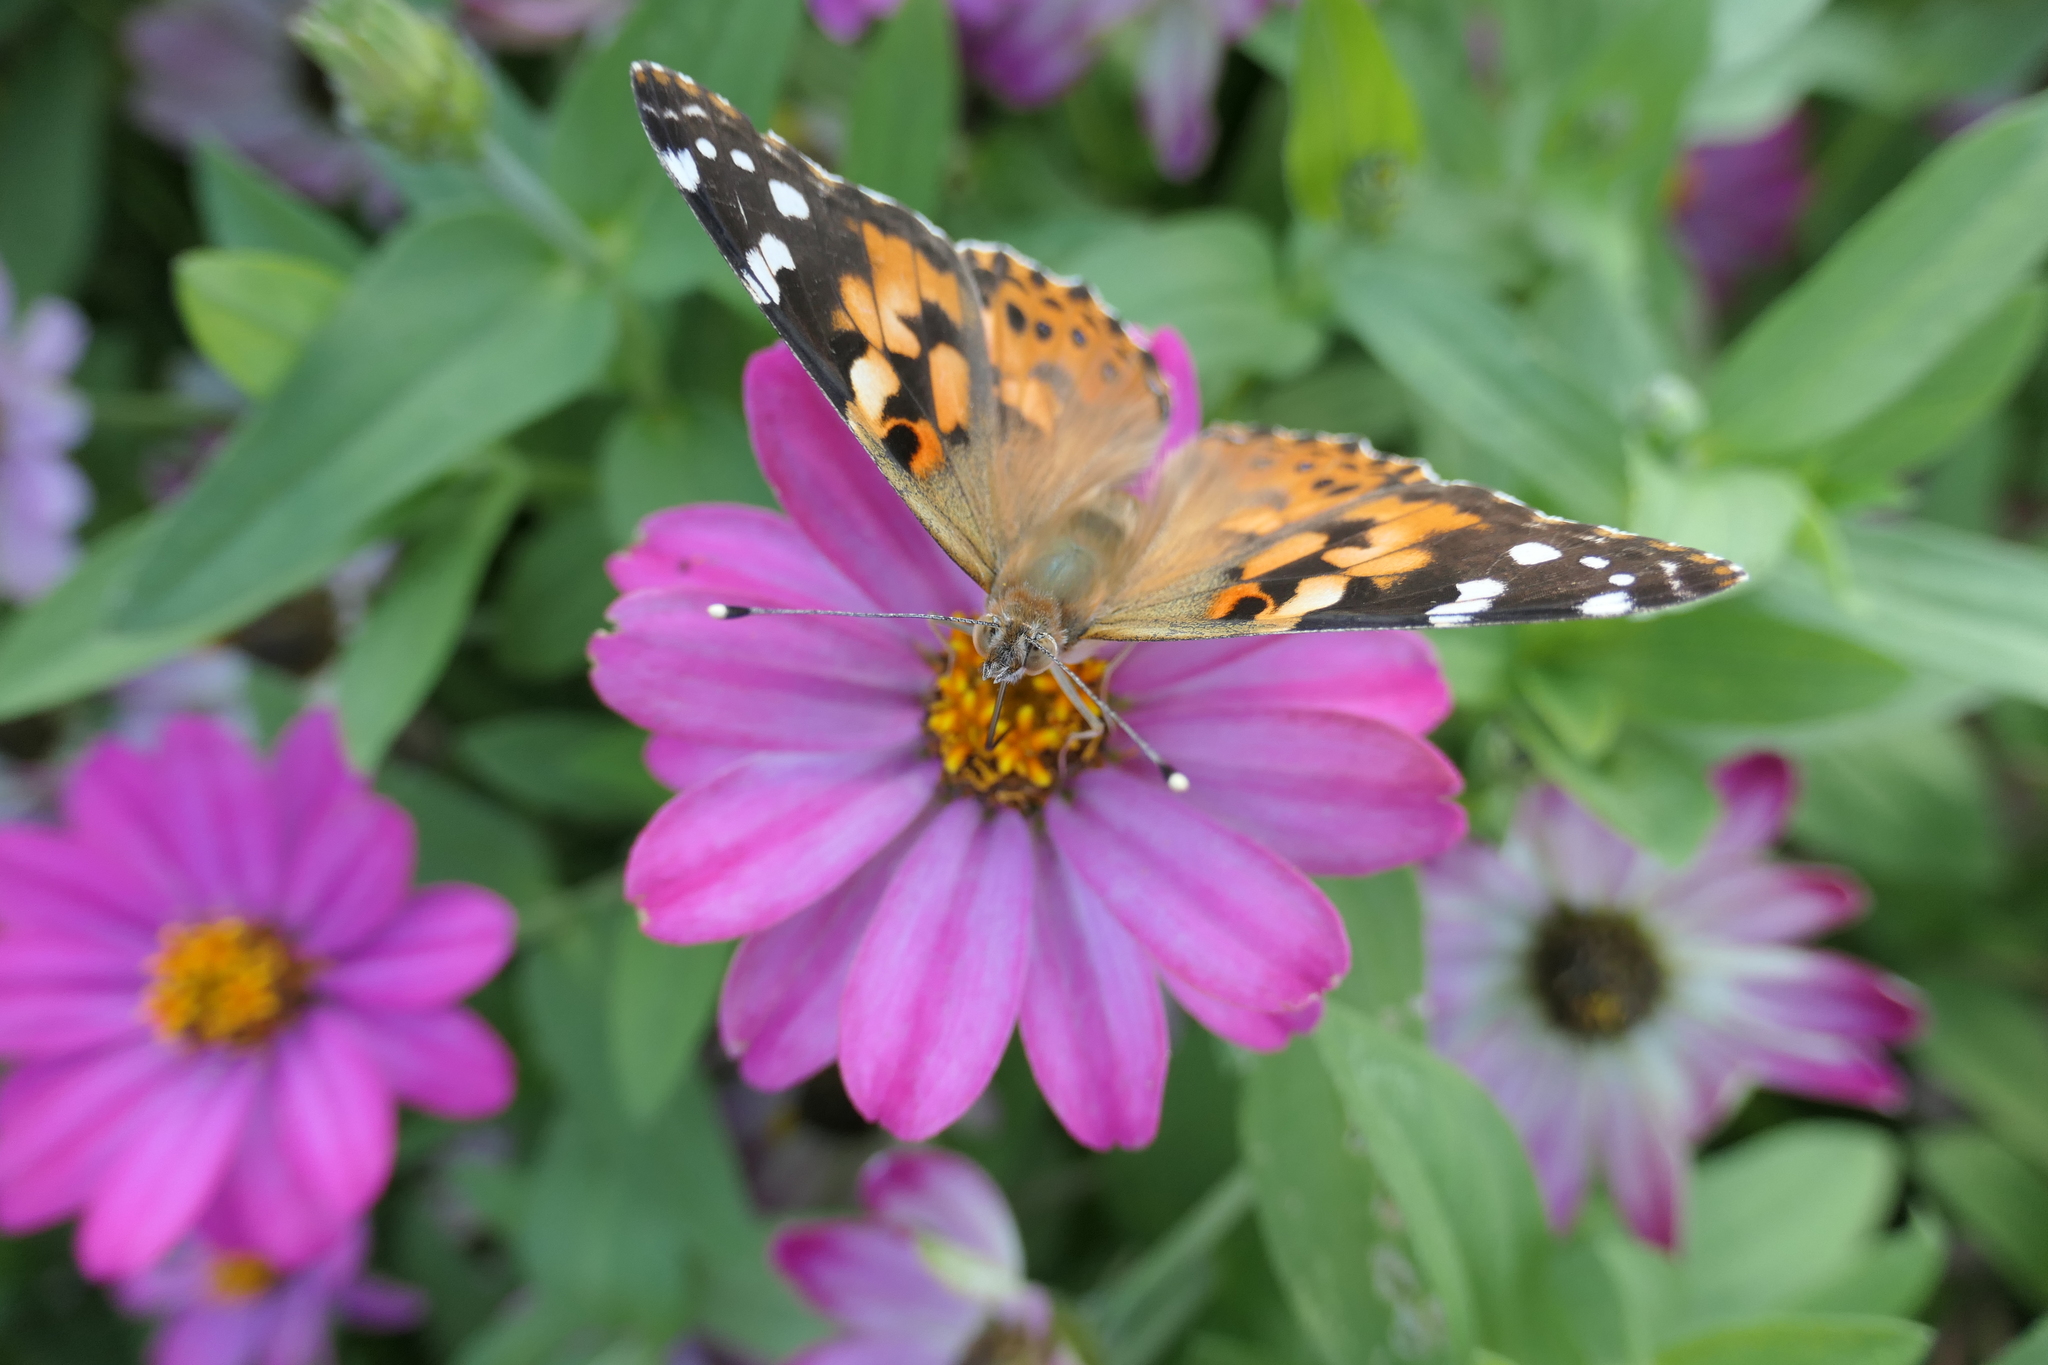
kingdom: Animalia
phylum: Arthropoda
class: Insecta
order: Lepidoptera
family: Nymphalidae
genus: Vanessa
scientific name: Vanessa cardui
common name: Painted lady
